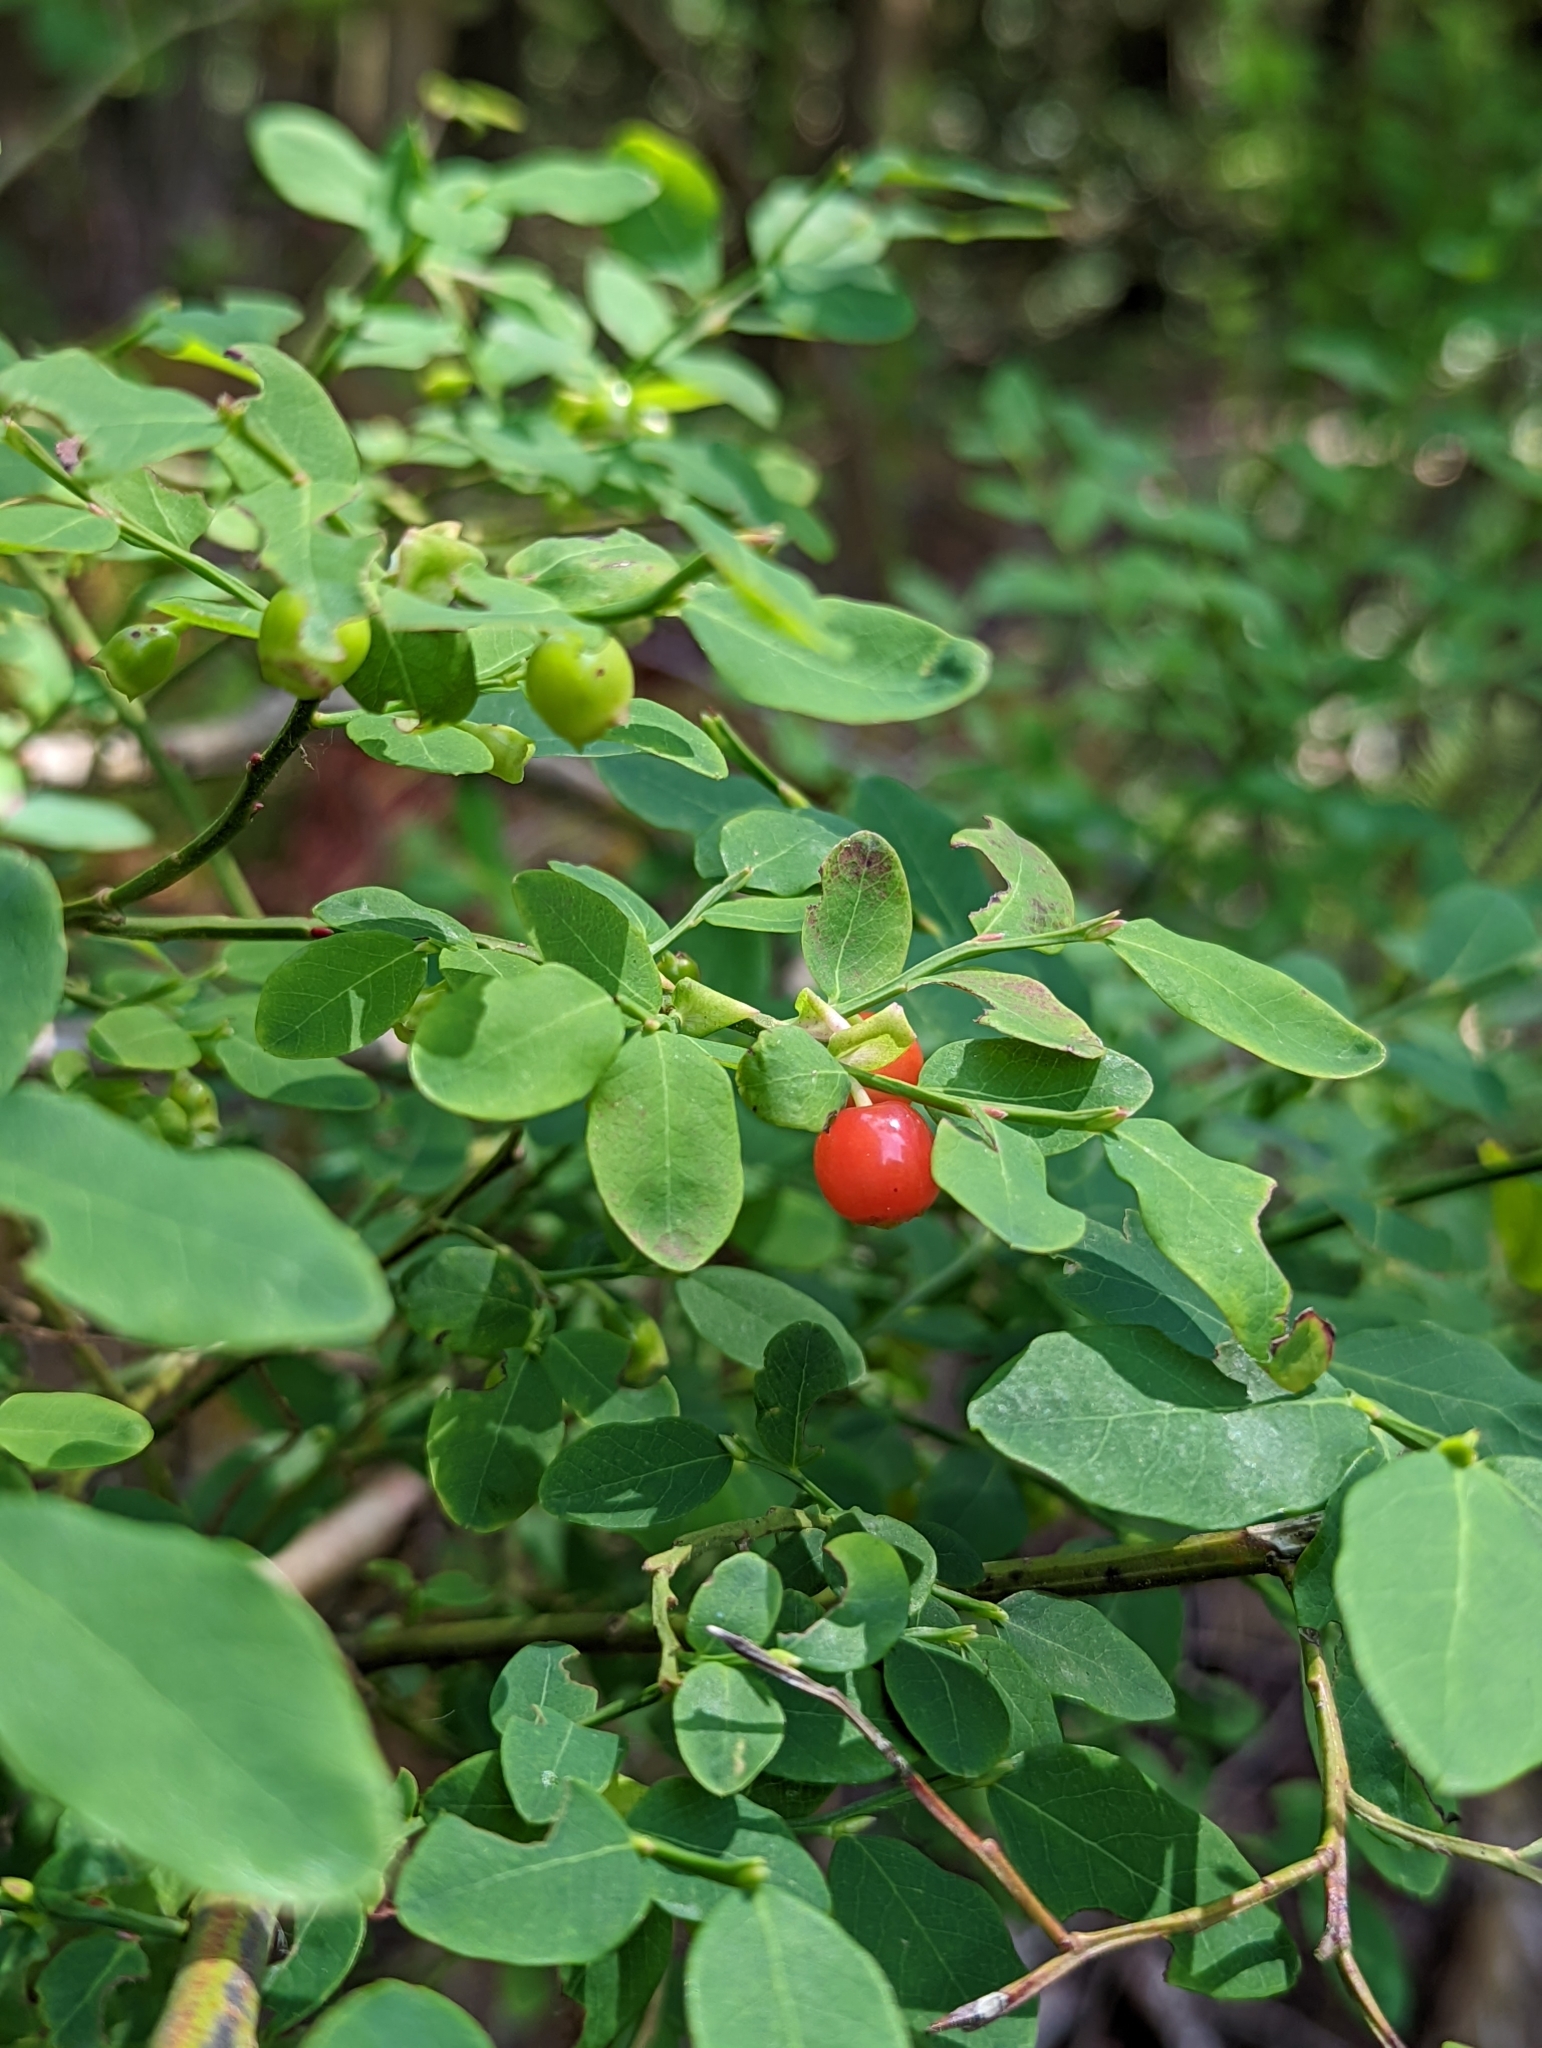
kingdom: Plantae
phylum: Tracheophyta
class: Magnoliopsida
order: Ericales
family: Ericaceae
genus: Vaccinium
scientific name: Vaccinium parvifolium
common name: Red-huckleberry
